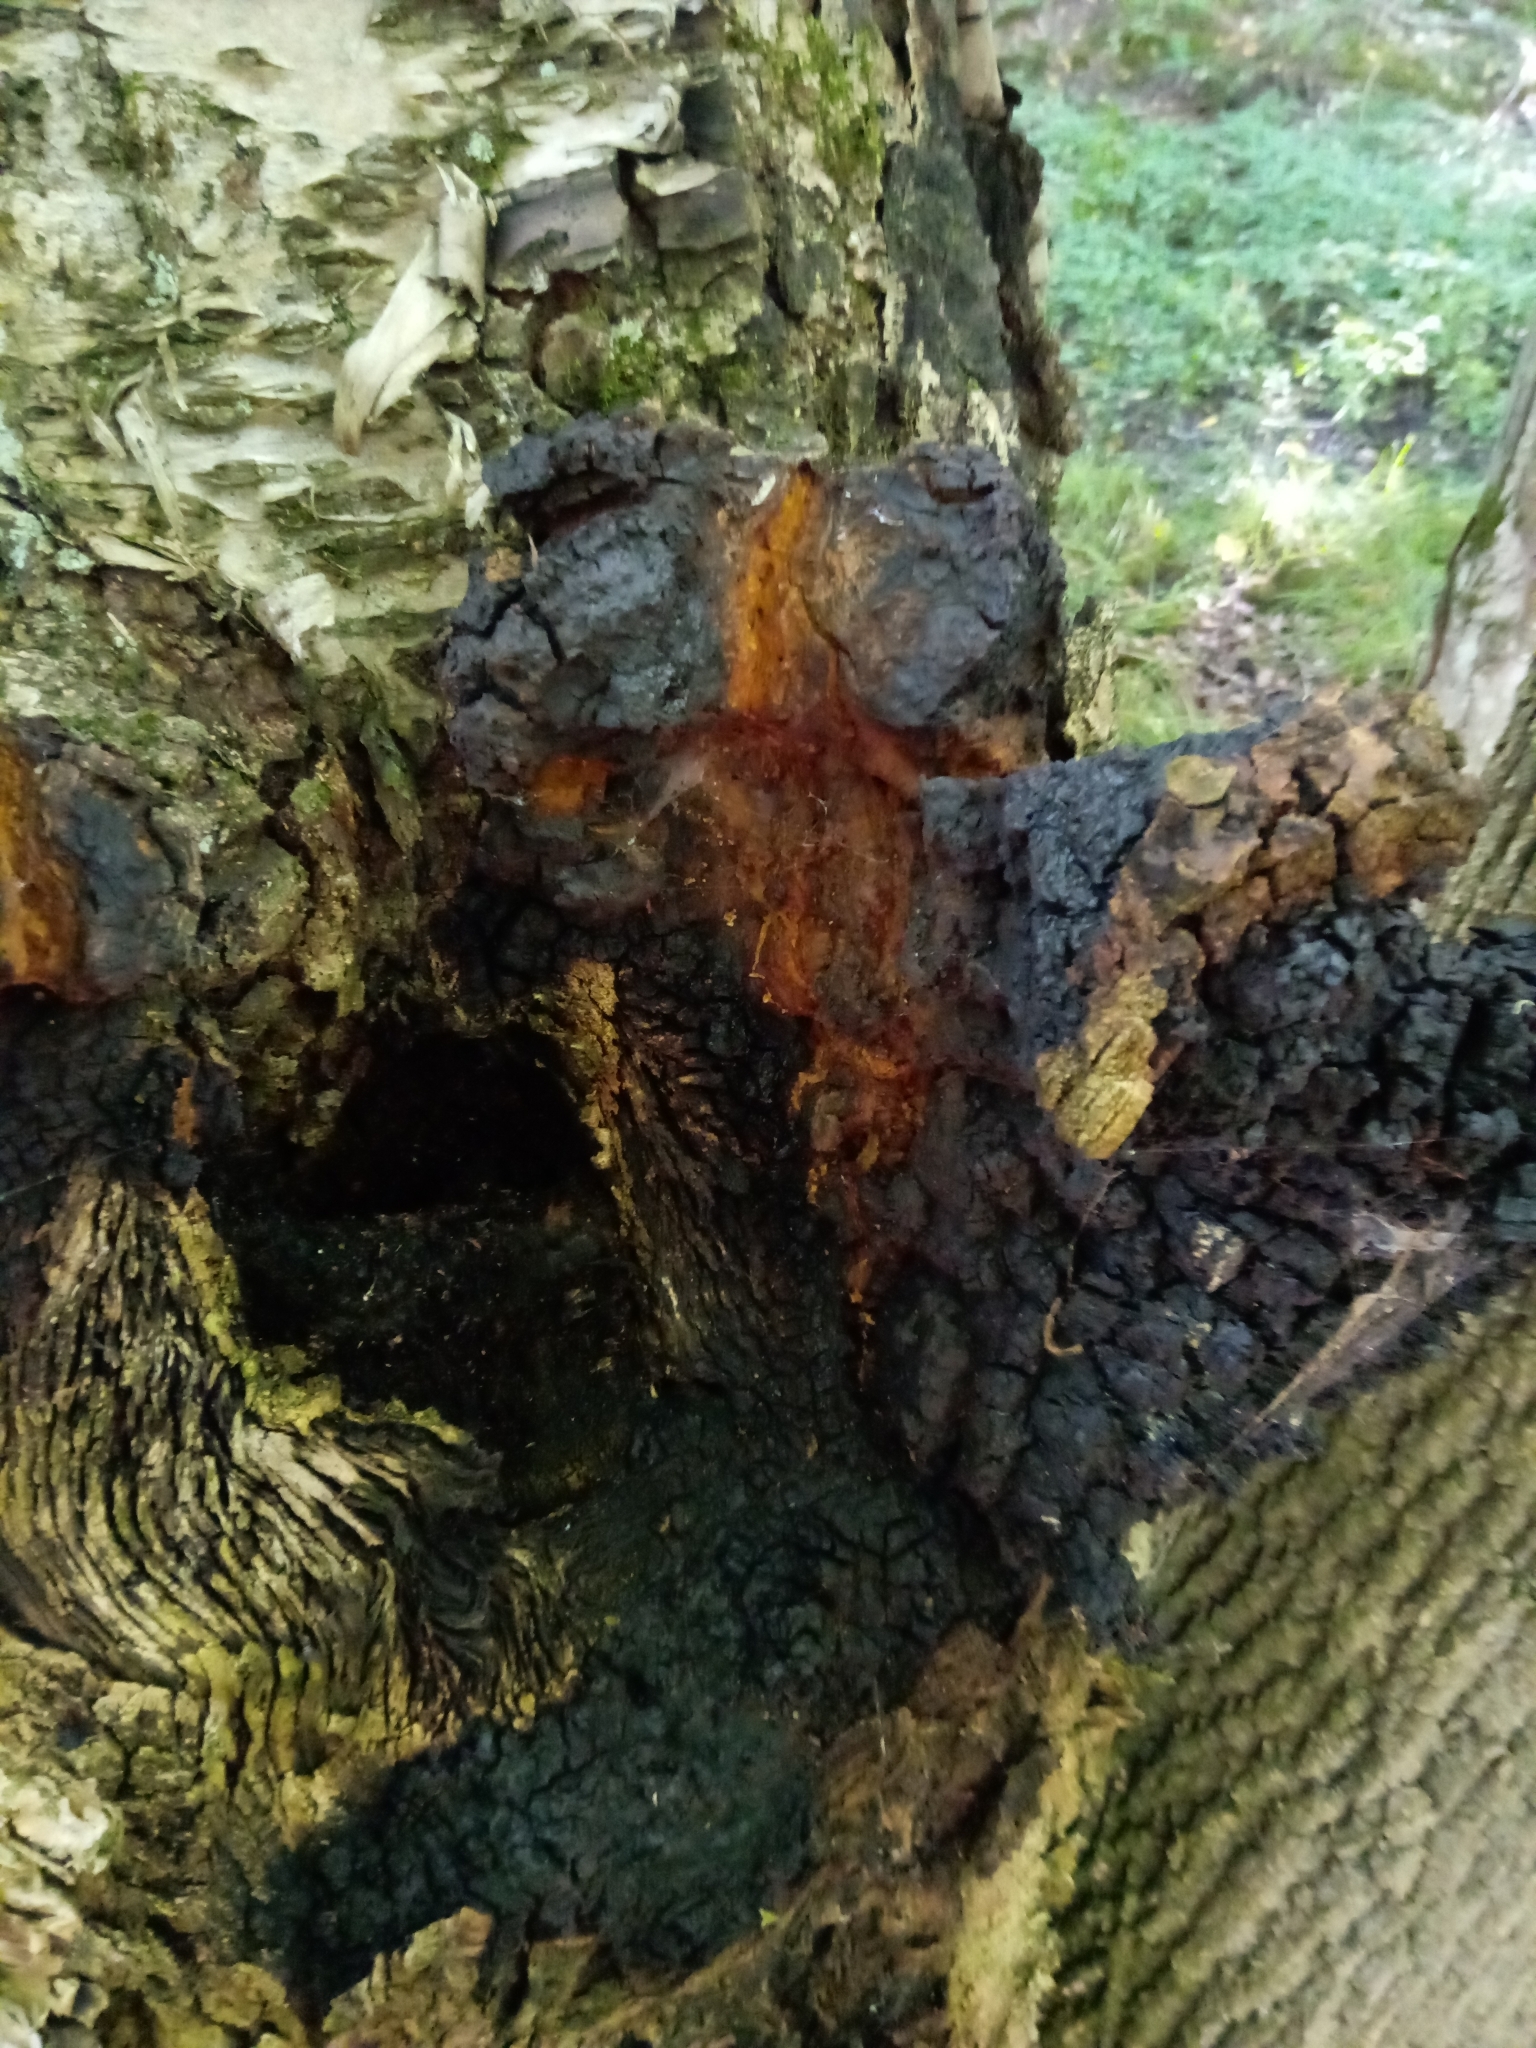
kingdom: Fungi
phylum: Basidiomycota
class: Agaricomycetes
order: Hymenochaetales
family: Hymenochaetaceae
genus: Inonotus
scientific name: Inonotus obliquus
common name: Chaga
